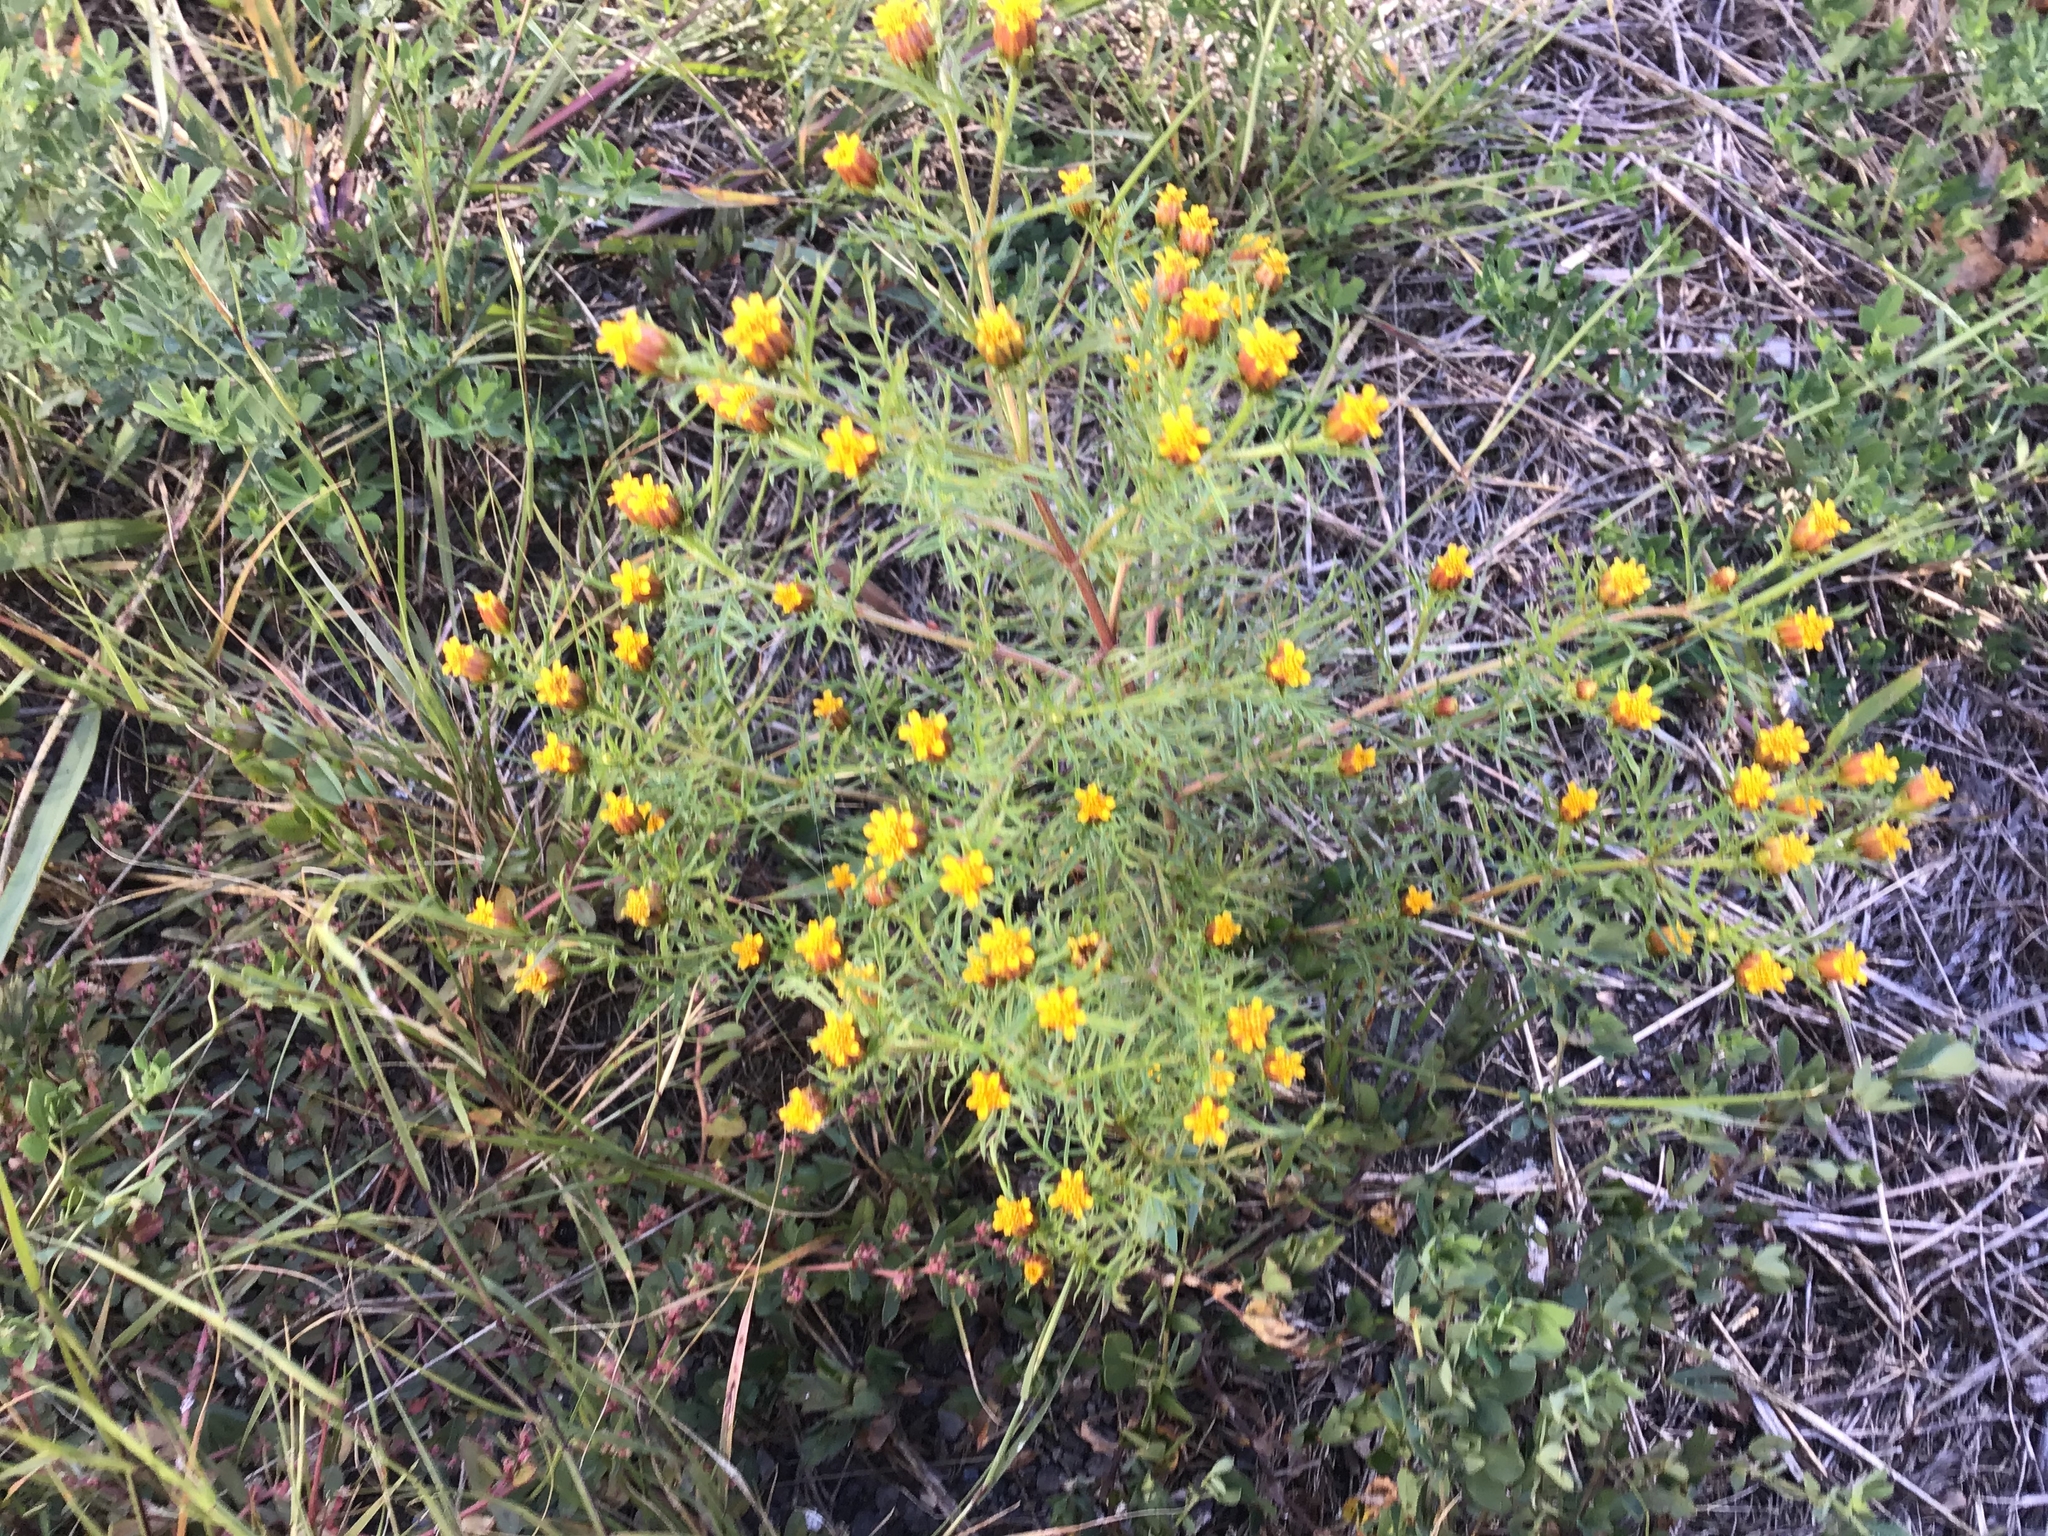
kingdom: Plantae
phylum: Tracheophyta
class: Magnoliopsida
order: Asterales
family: Asteraceae
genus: Dyssodia
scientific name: Dyssodia papposa
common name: Dogweed
